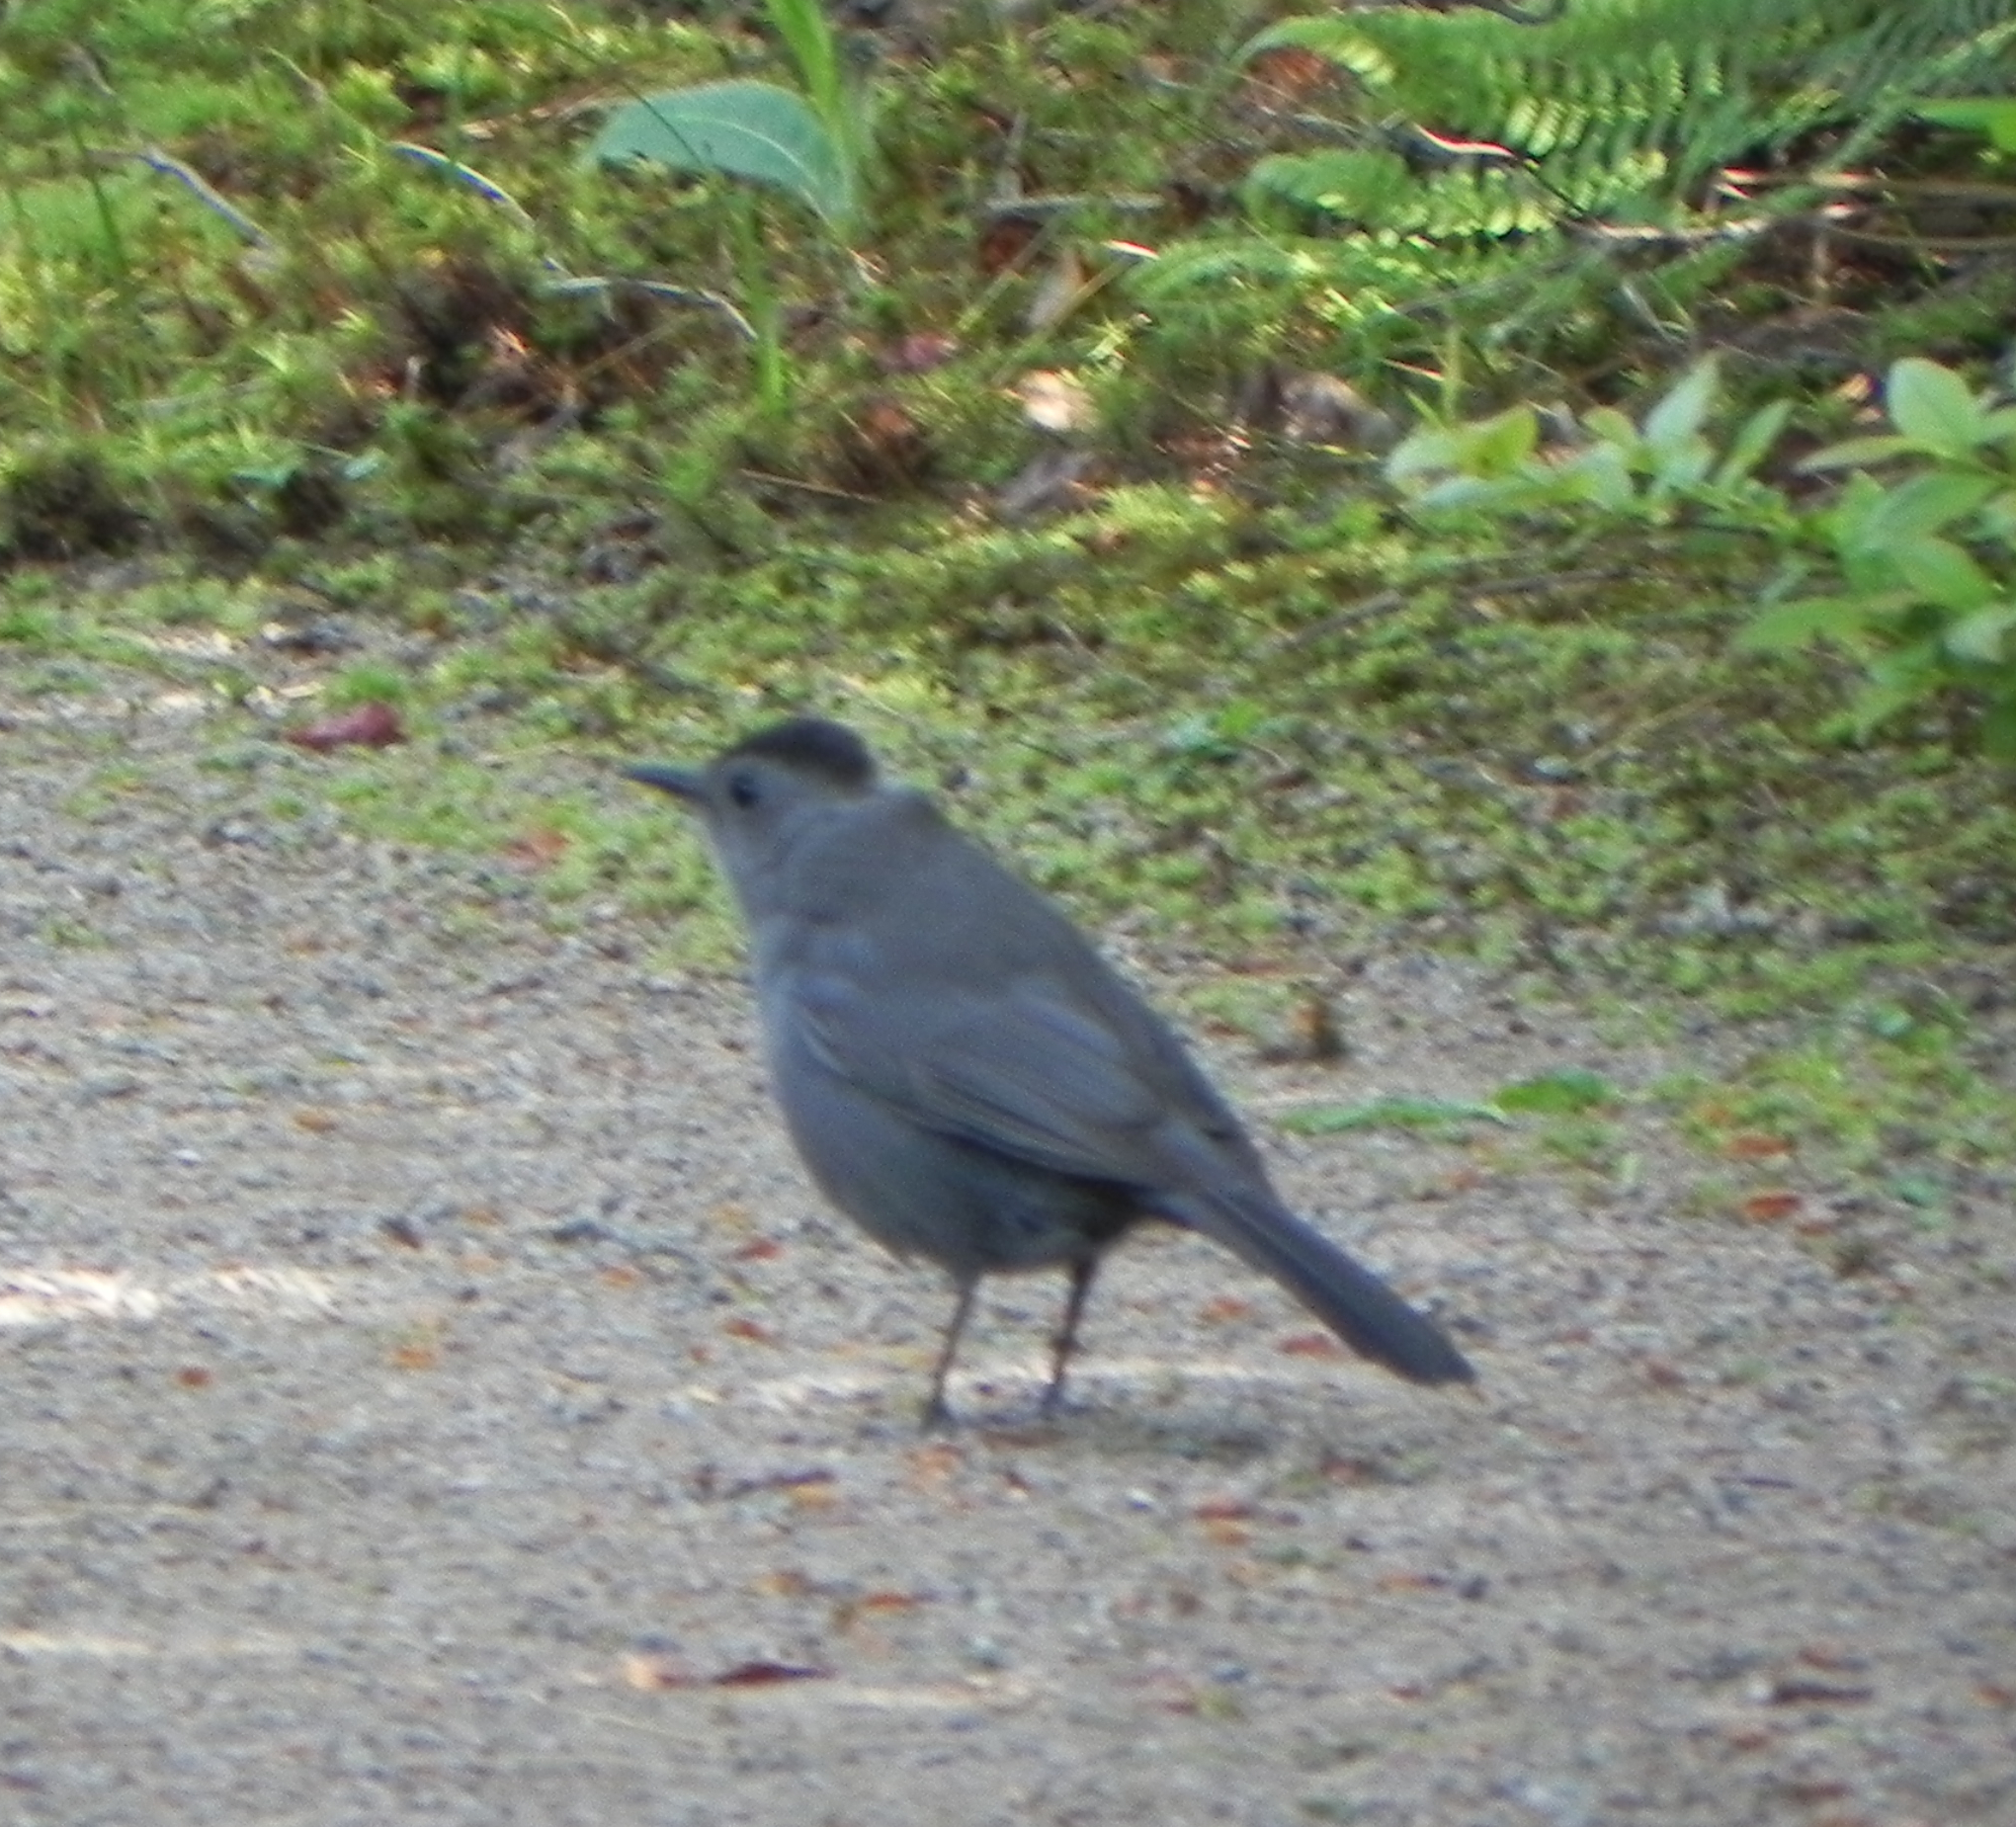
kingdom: Animalia
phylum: Chordata
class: Aves
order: Passeriformes
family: Mimidae
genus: Dumetella
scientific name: Dumetella carolinensis
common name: Gray catbird
